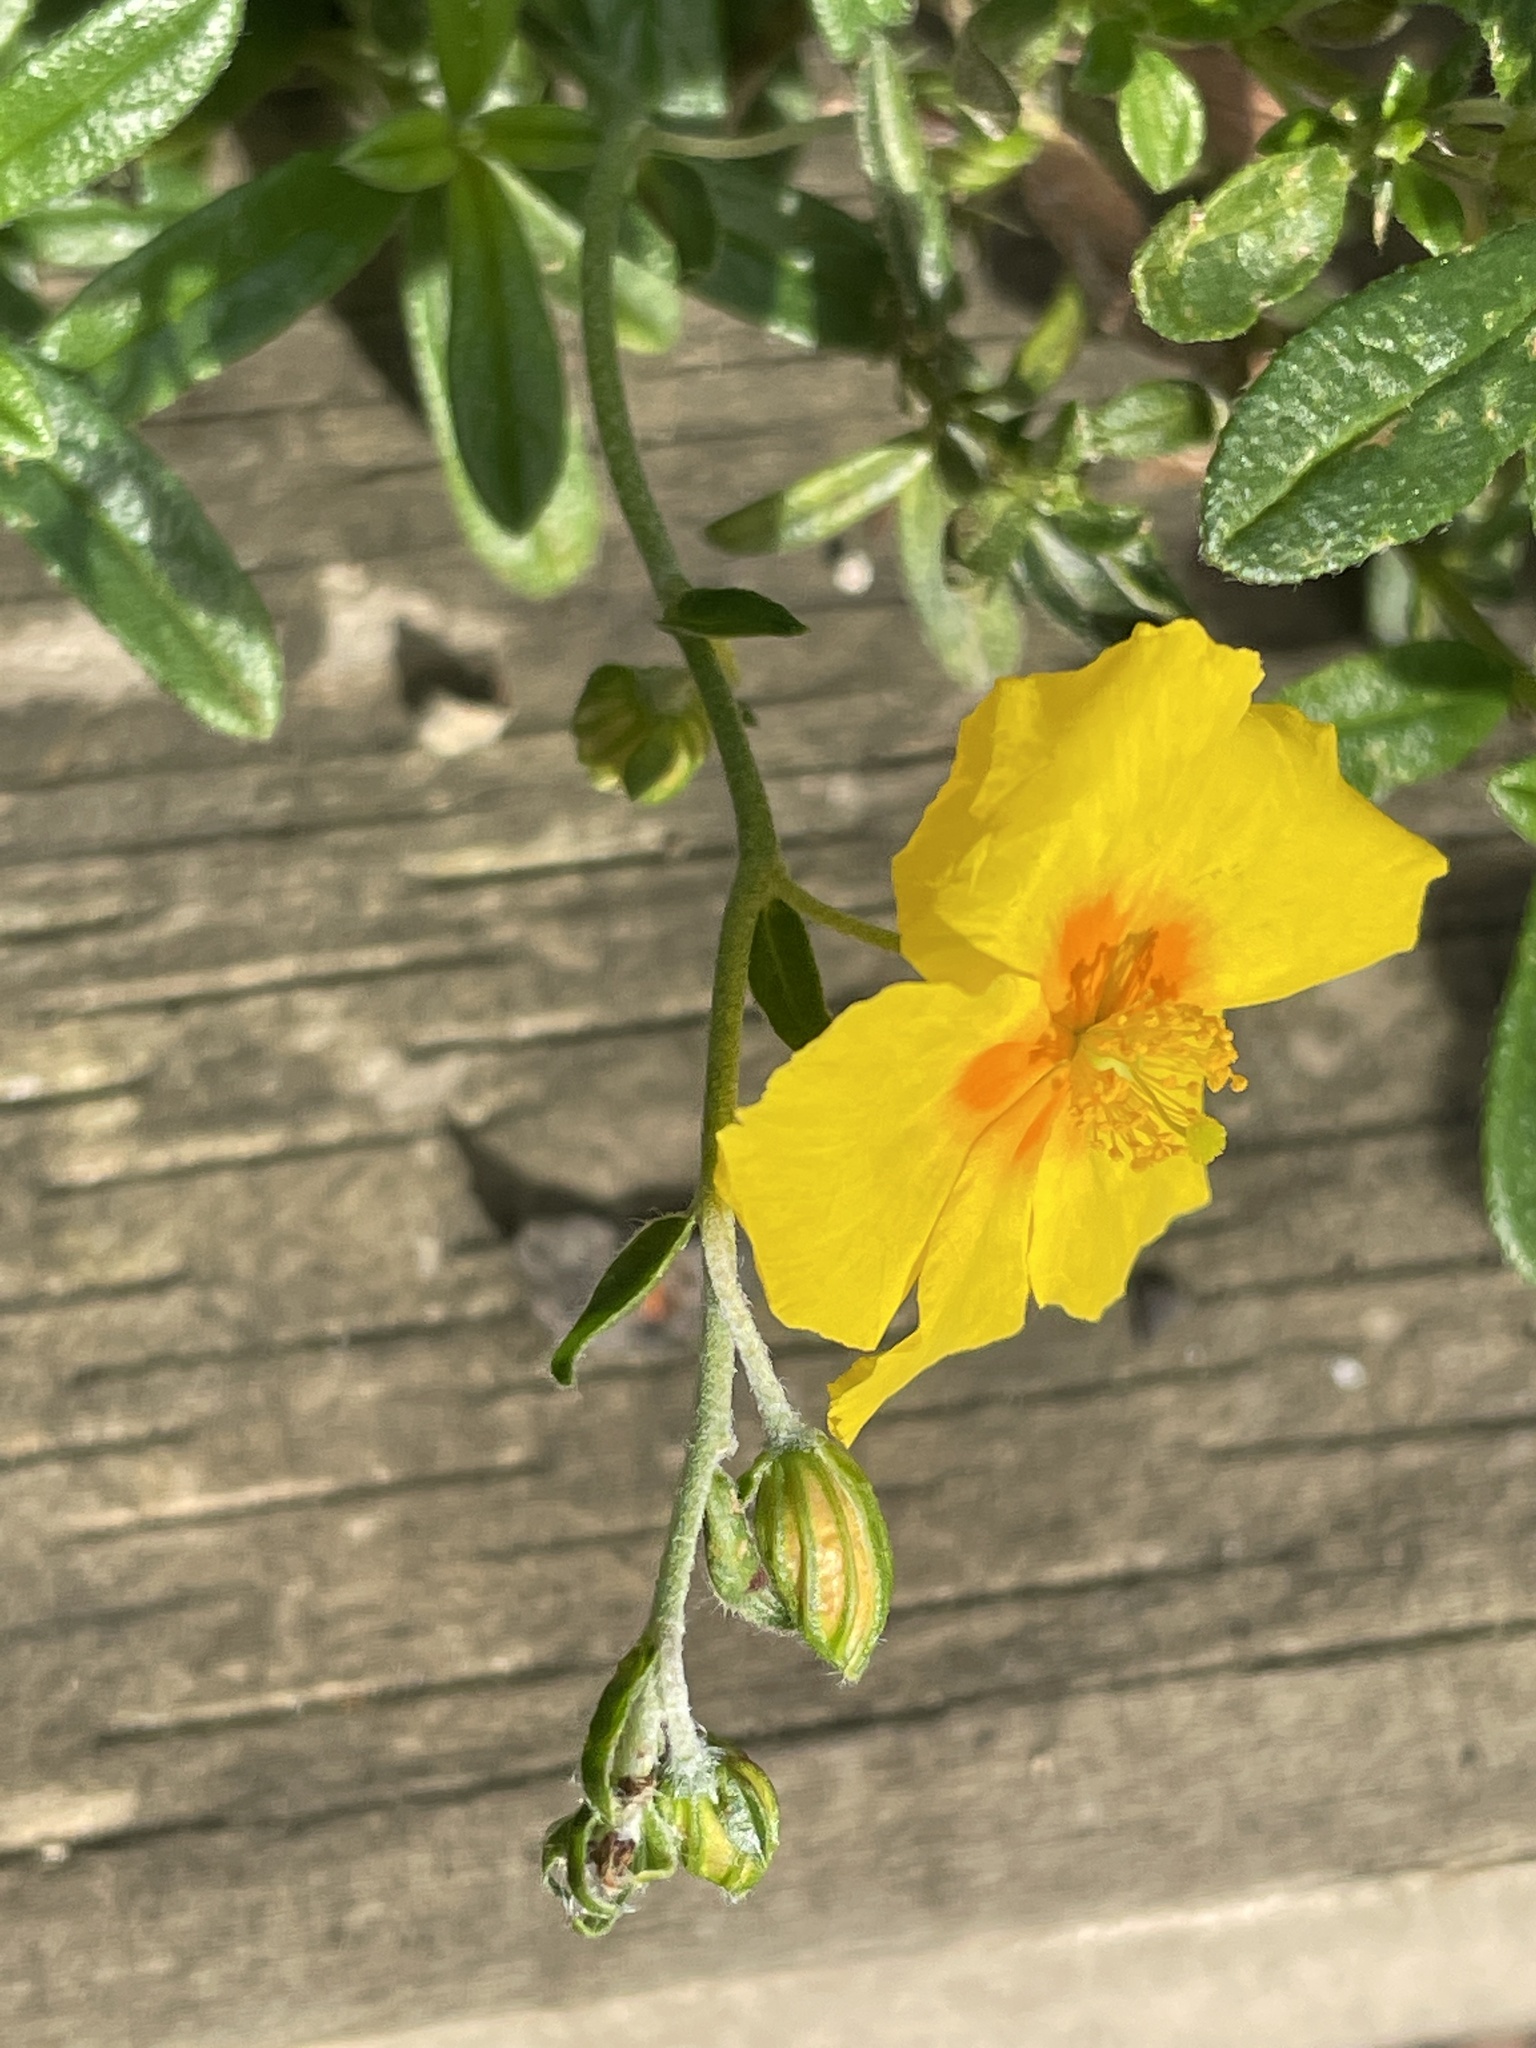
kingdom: Plantae
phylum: Tracheophyta
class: Magnoliopsida
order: Malvales
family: Cistaceae
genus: Helianthemum
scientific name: Helianthemum nummularium
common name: Common rock-rose
